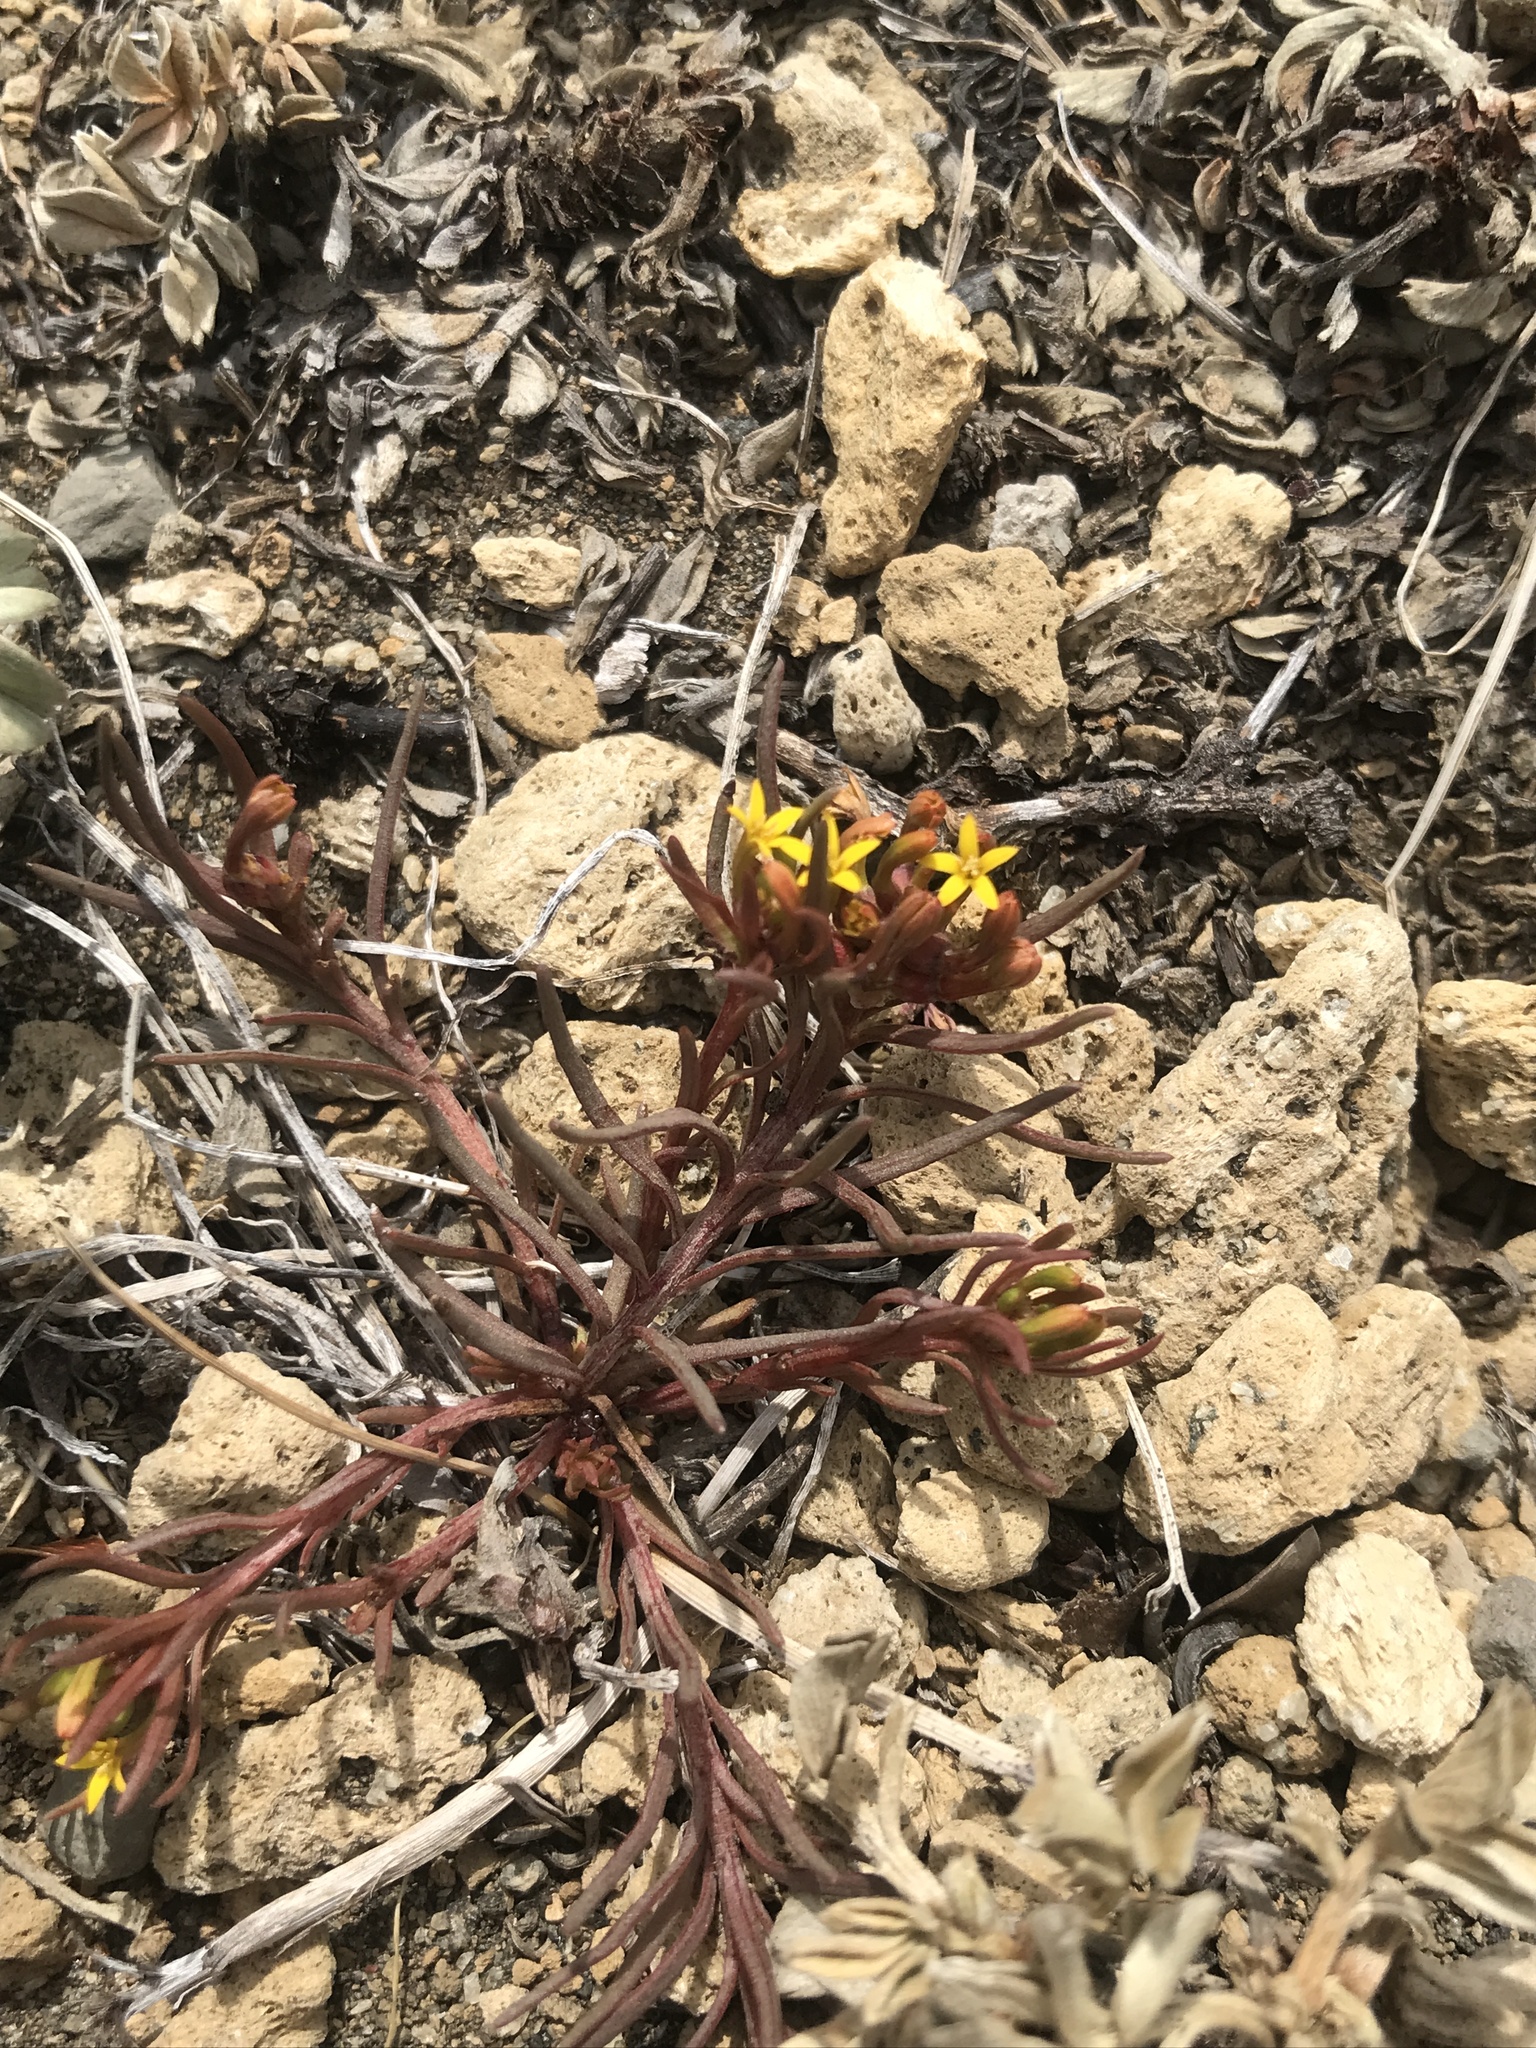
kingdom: Plantae
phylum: Tracheophyta
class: Magnoliopsida
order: Santalales
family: Schoepfiaceae
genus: Quinchamalium
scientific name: Quinchamalium chilense
